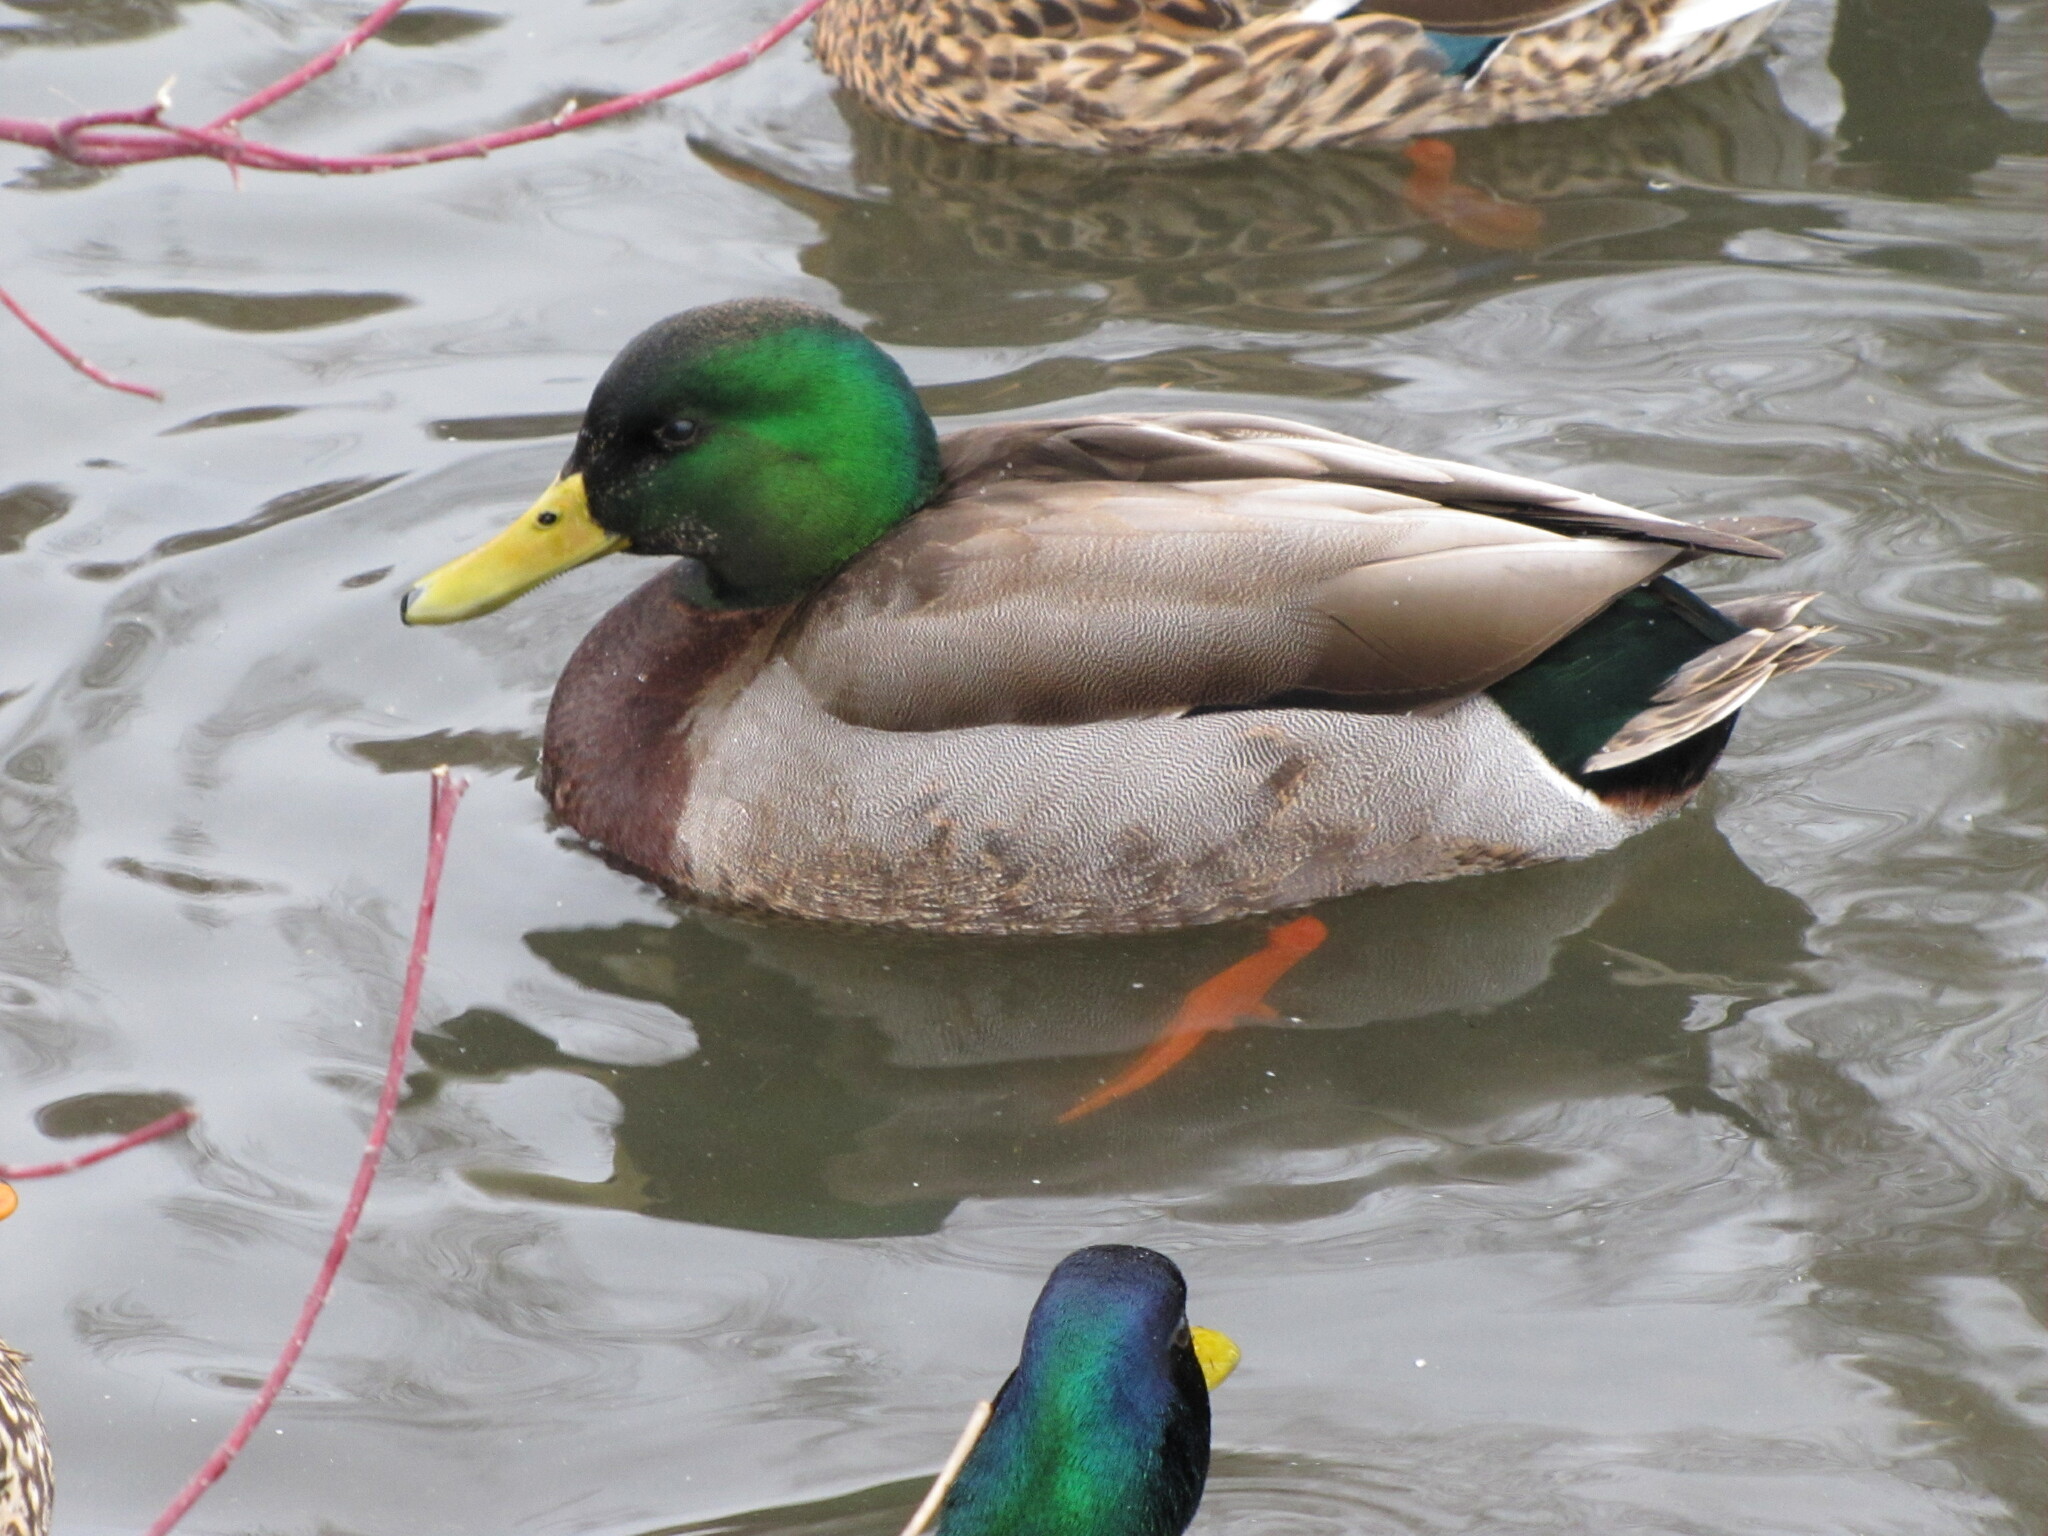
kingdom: Animalia
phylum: Chordata
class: Aves
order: Anseriformes
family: Anatidae
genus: Anas
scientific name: Anas platyrhynchos
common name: Mallard
